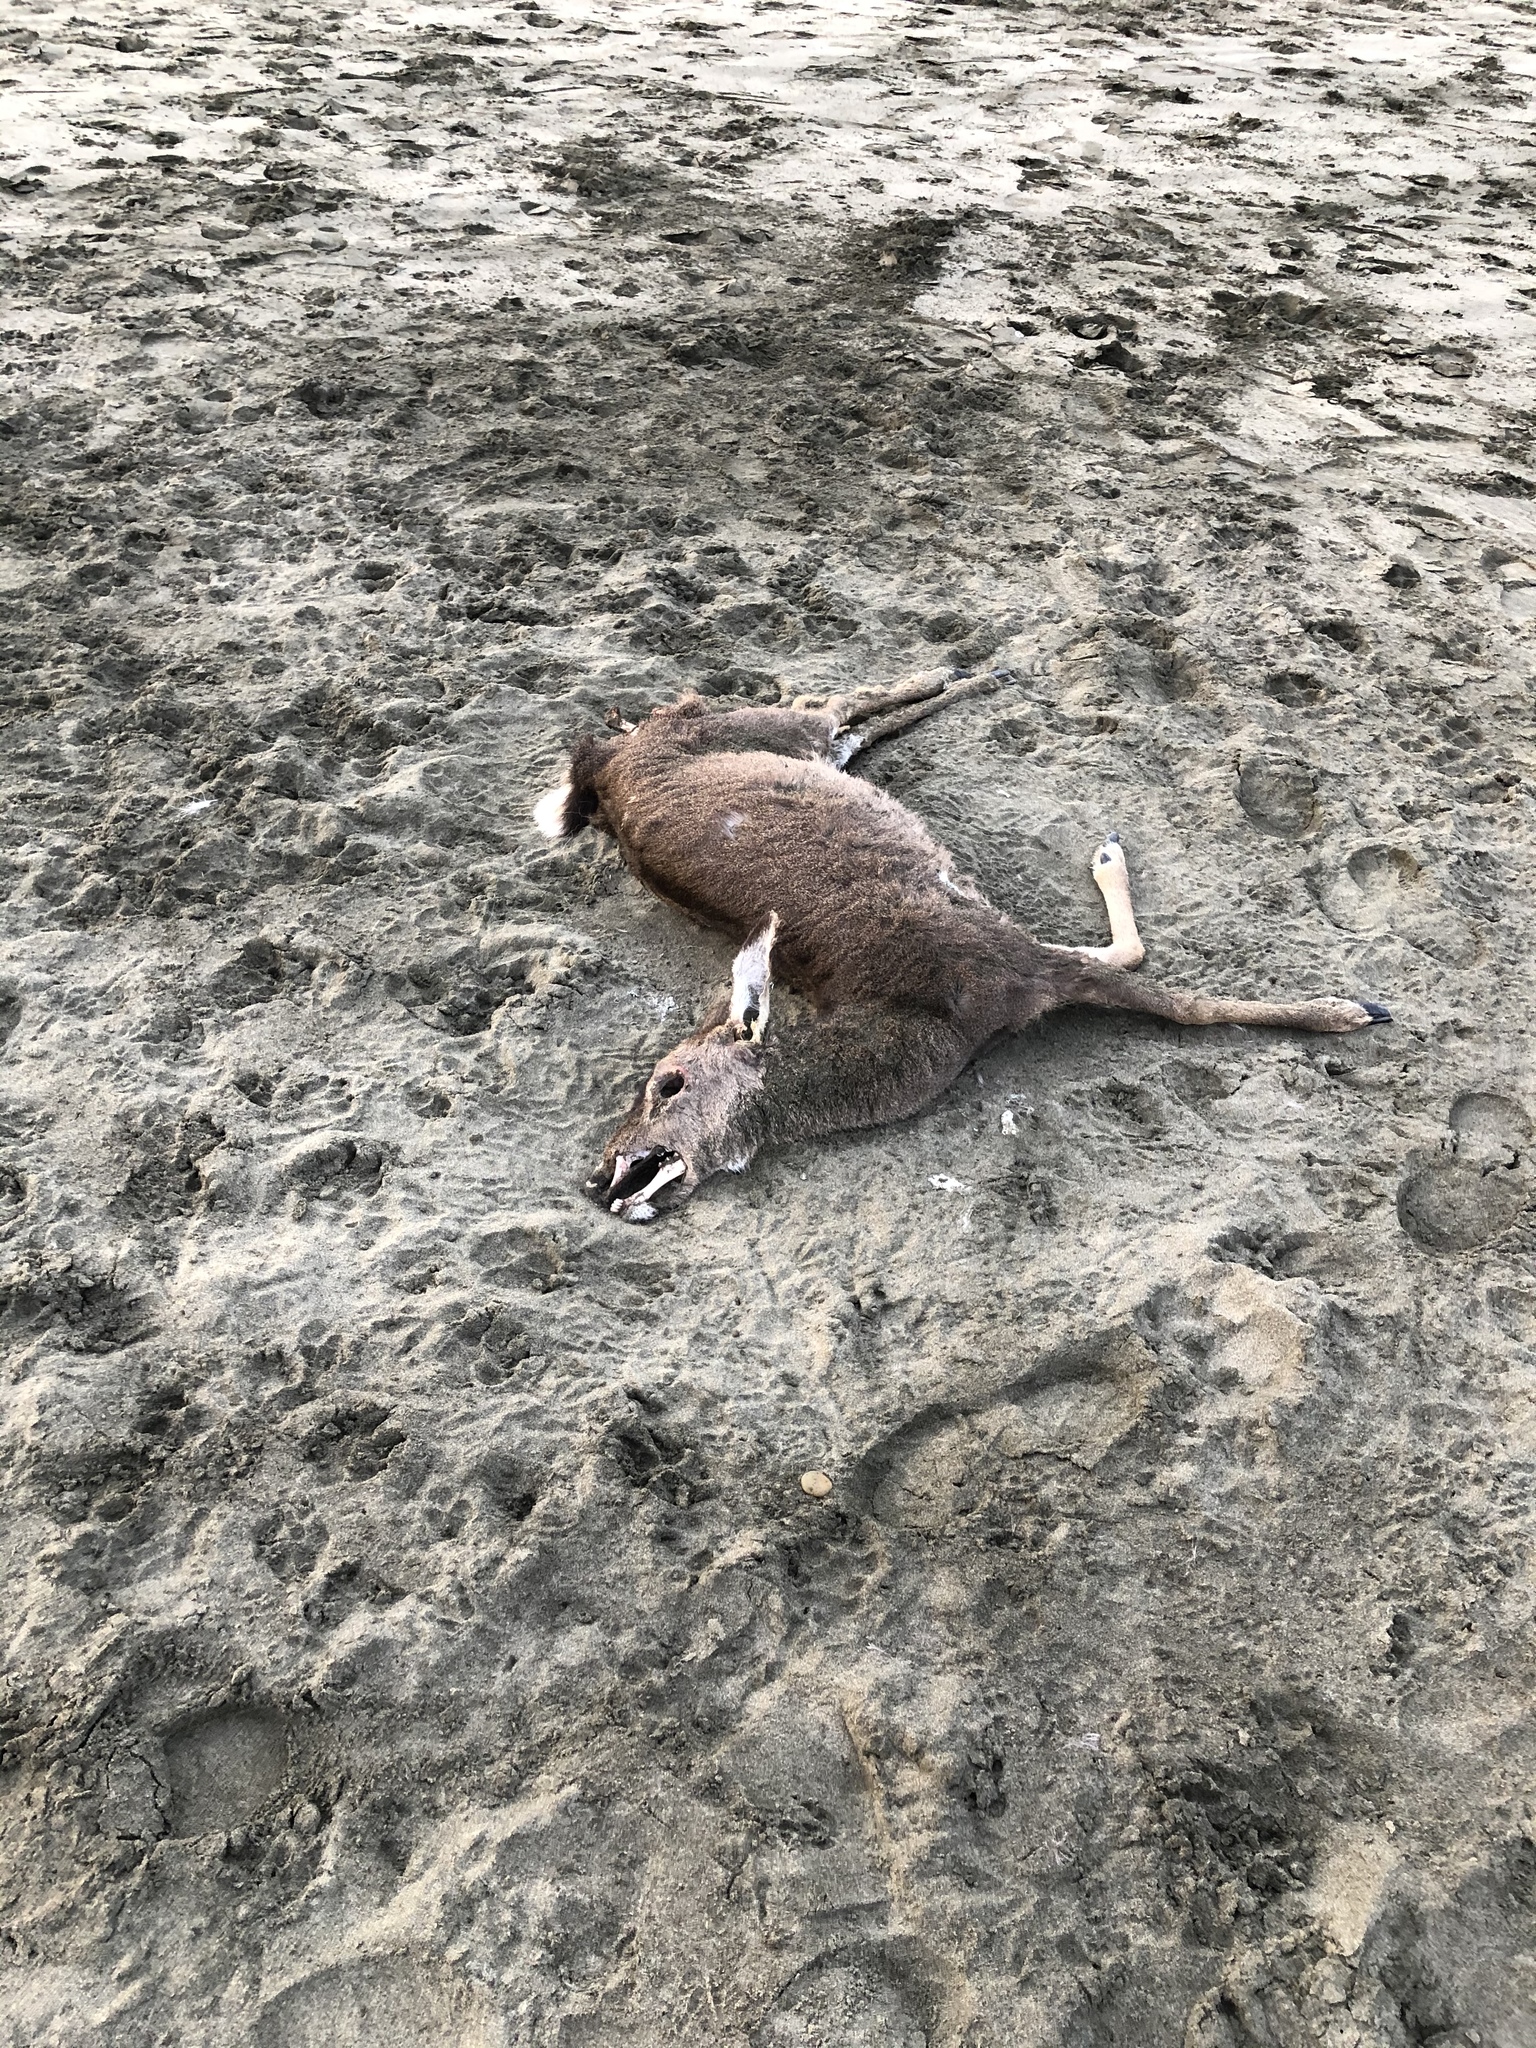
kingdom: Animalia
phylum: Chordata
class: Mammalia
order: Artiodactyla
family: Cervidae
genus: Odocoileus
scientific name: Odocoileus hemionus
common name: Mule deer
